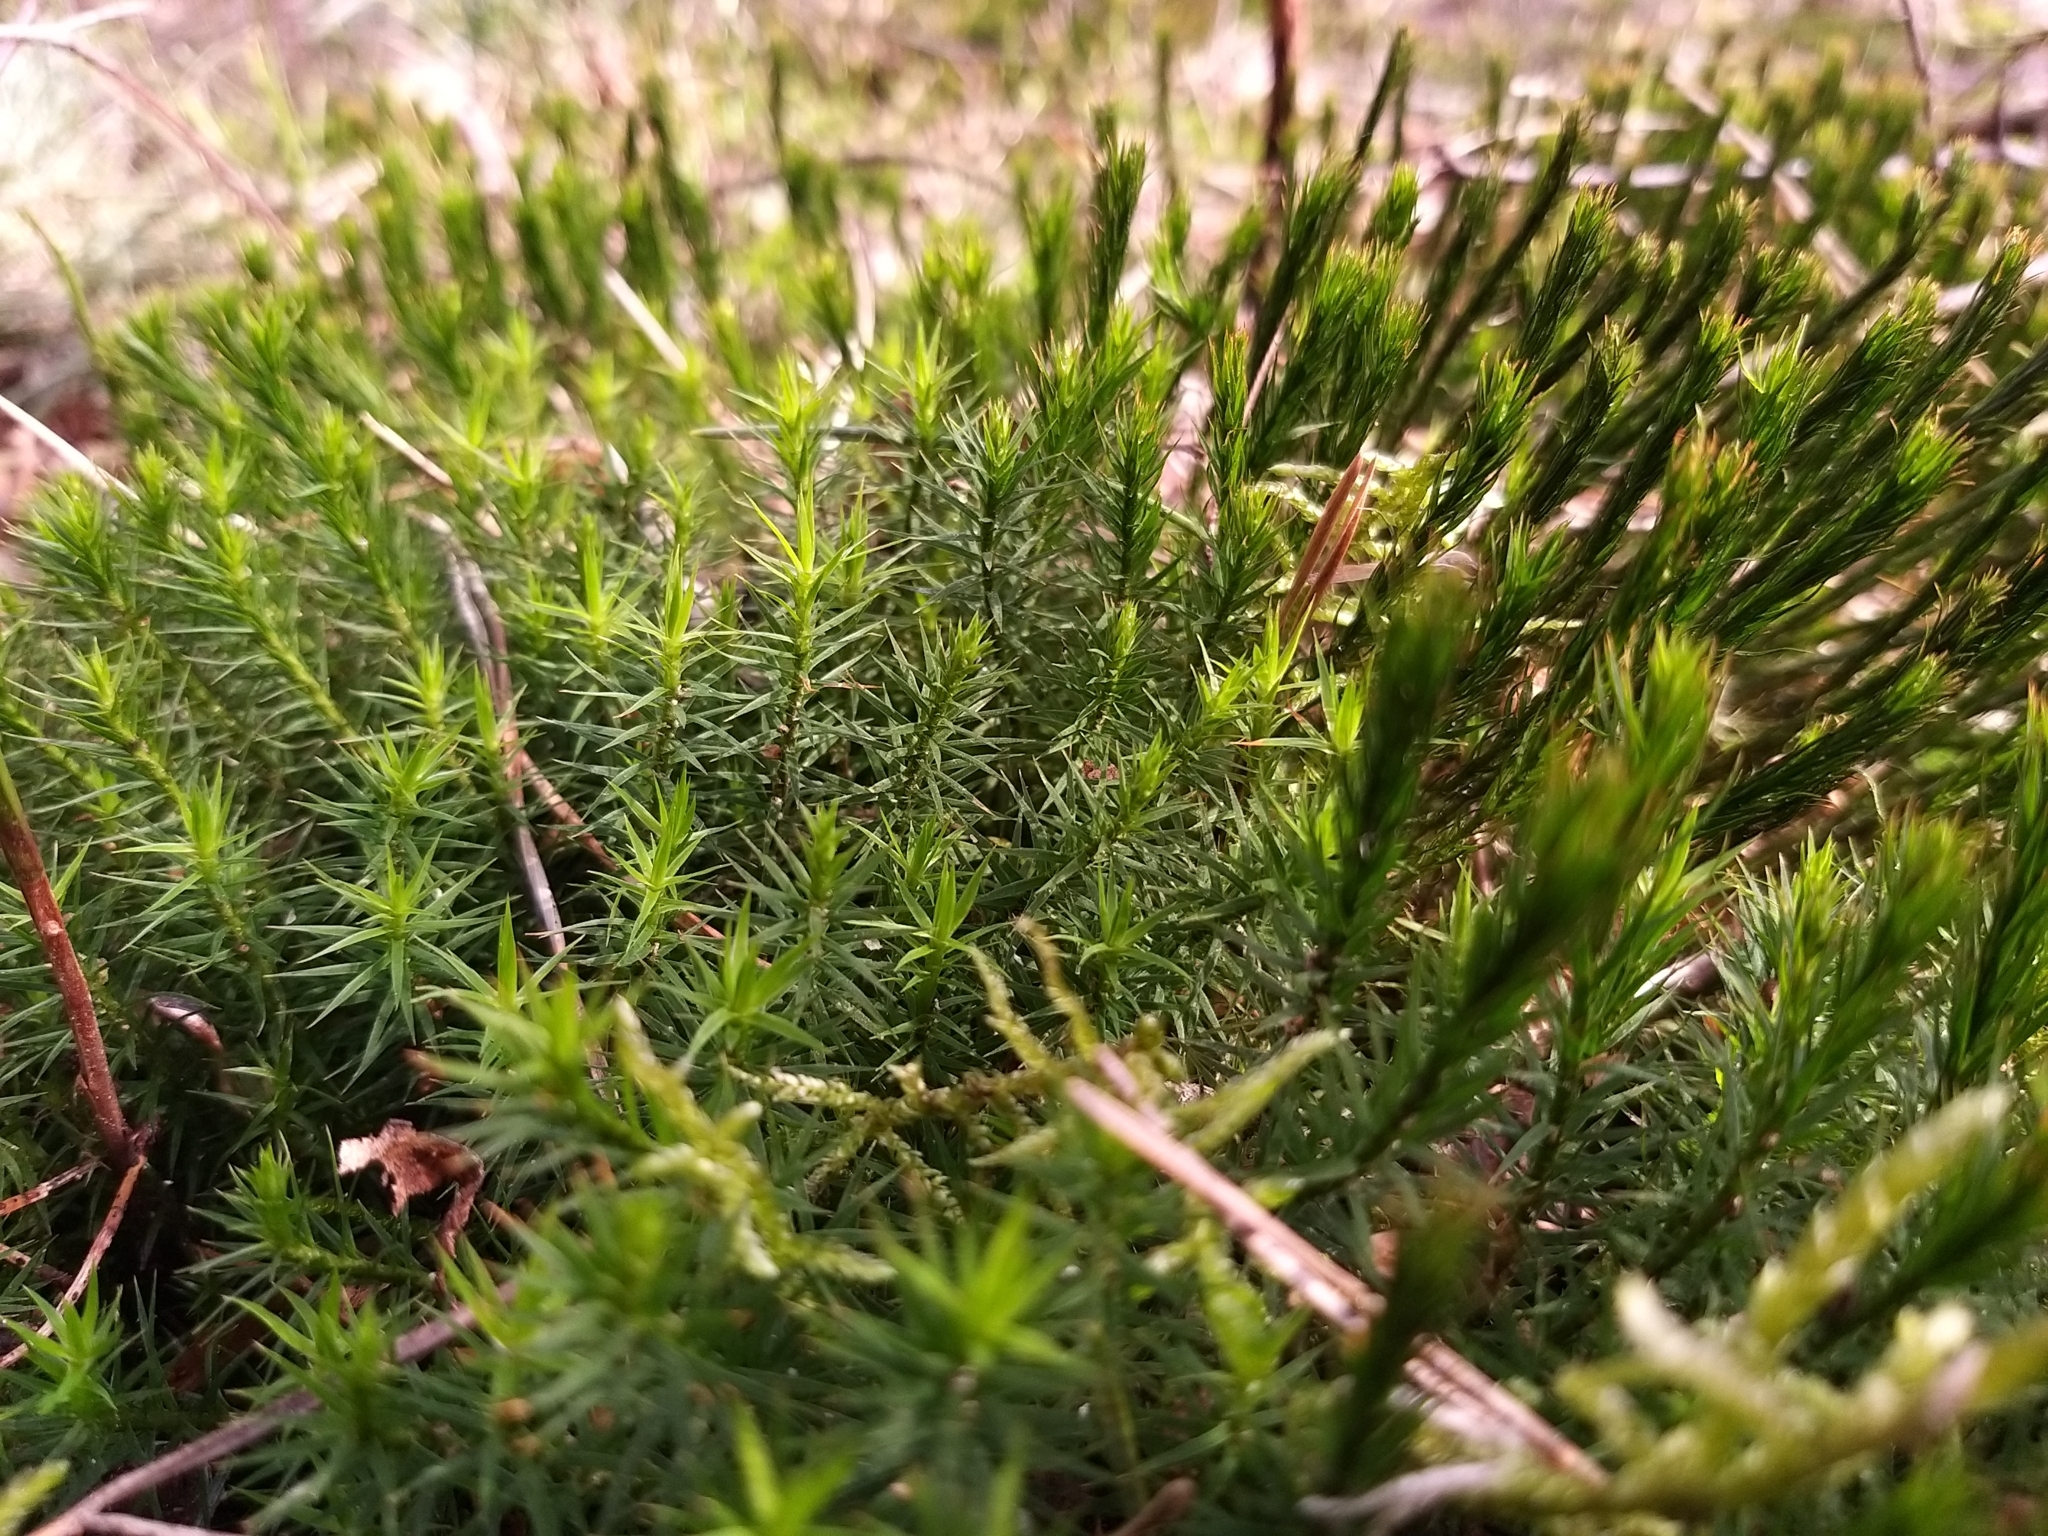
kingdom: Plantae
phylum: Bryophyta
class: Polytrichopsida
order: Polytrichales
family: Polytrichaceae
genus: Polytrichum
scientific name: Polytrichum formosum
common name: Bank haircap moss
